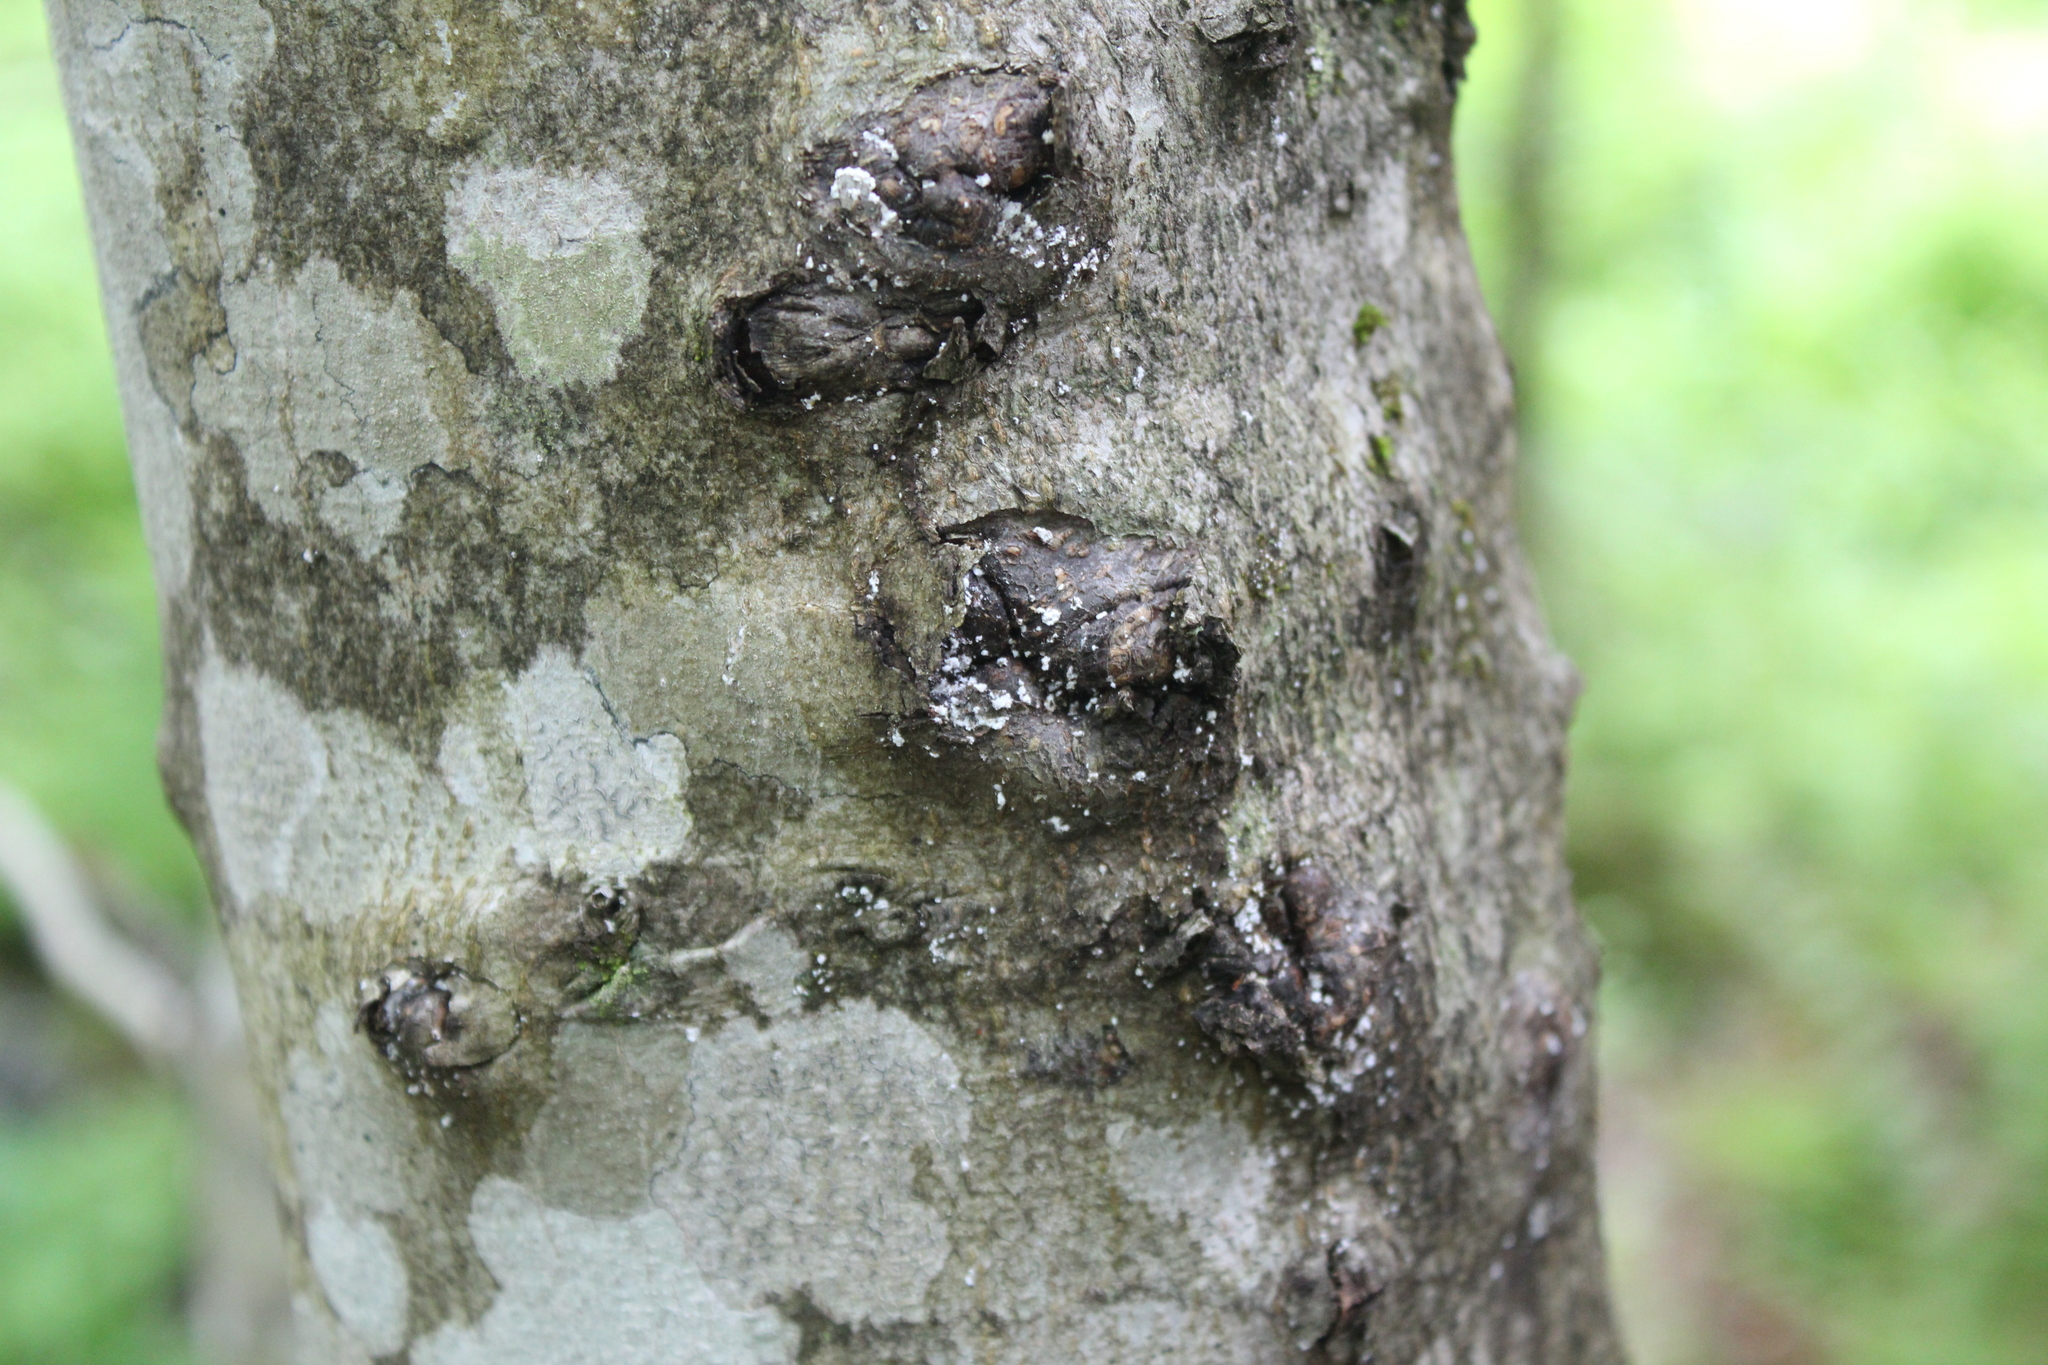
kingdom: Plantae
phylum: Tracheophyta
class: Magnoliopsida
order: Fagales
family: Fagaceae
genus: Fagus
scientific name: Fagus grandifolia
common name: American beech
